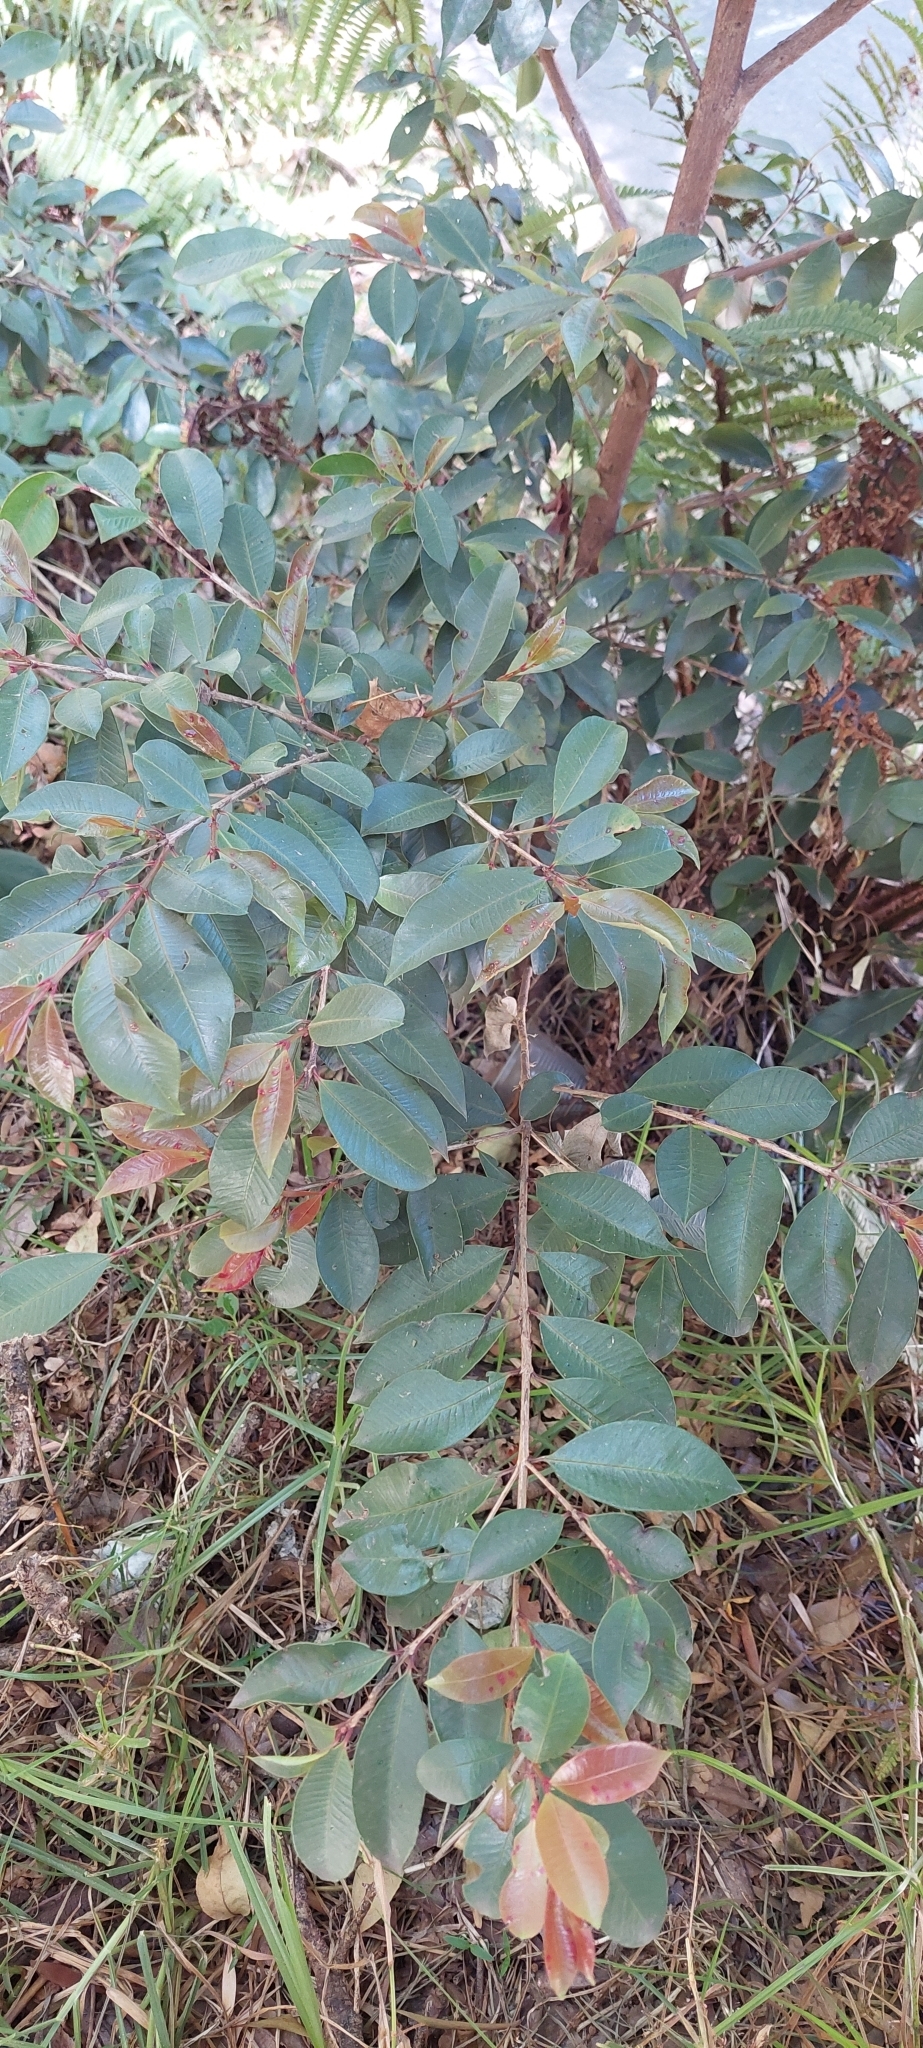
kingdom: Plantae
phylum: Tracheophyta
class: Magnoliopsida
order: Myrtales
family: Myrtaceae
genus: Syzygium
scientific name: Syzygium paniculatum
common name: Magenta lilly-pilly
